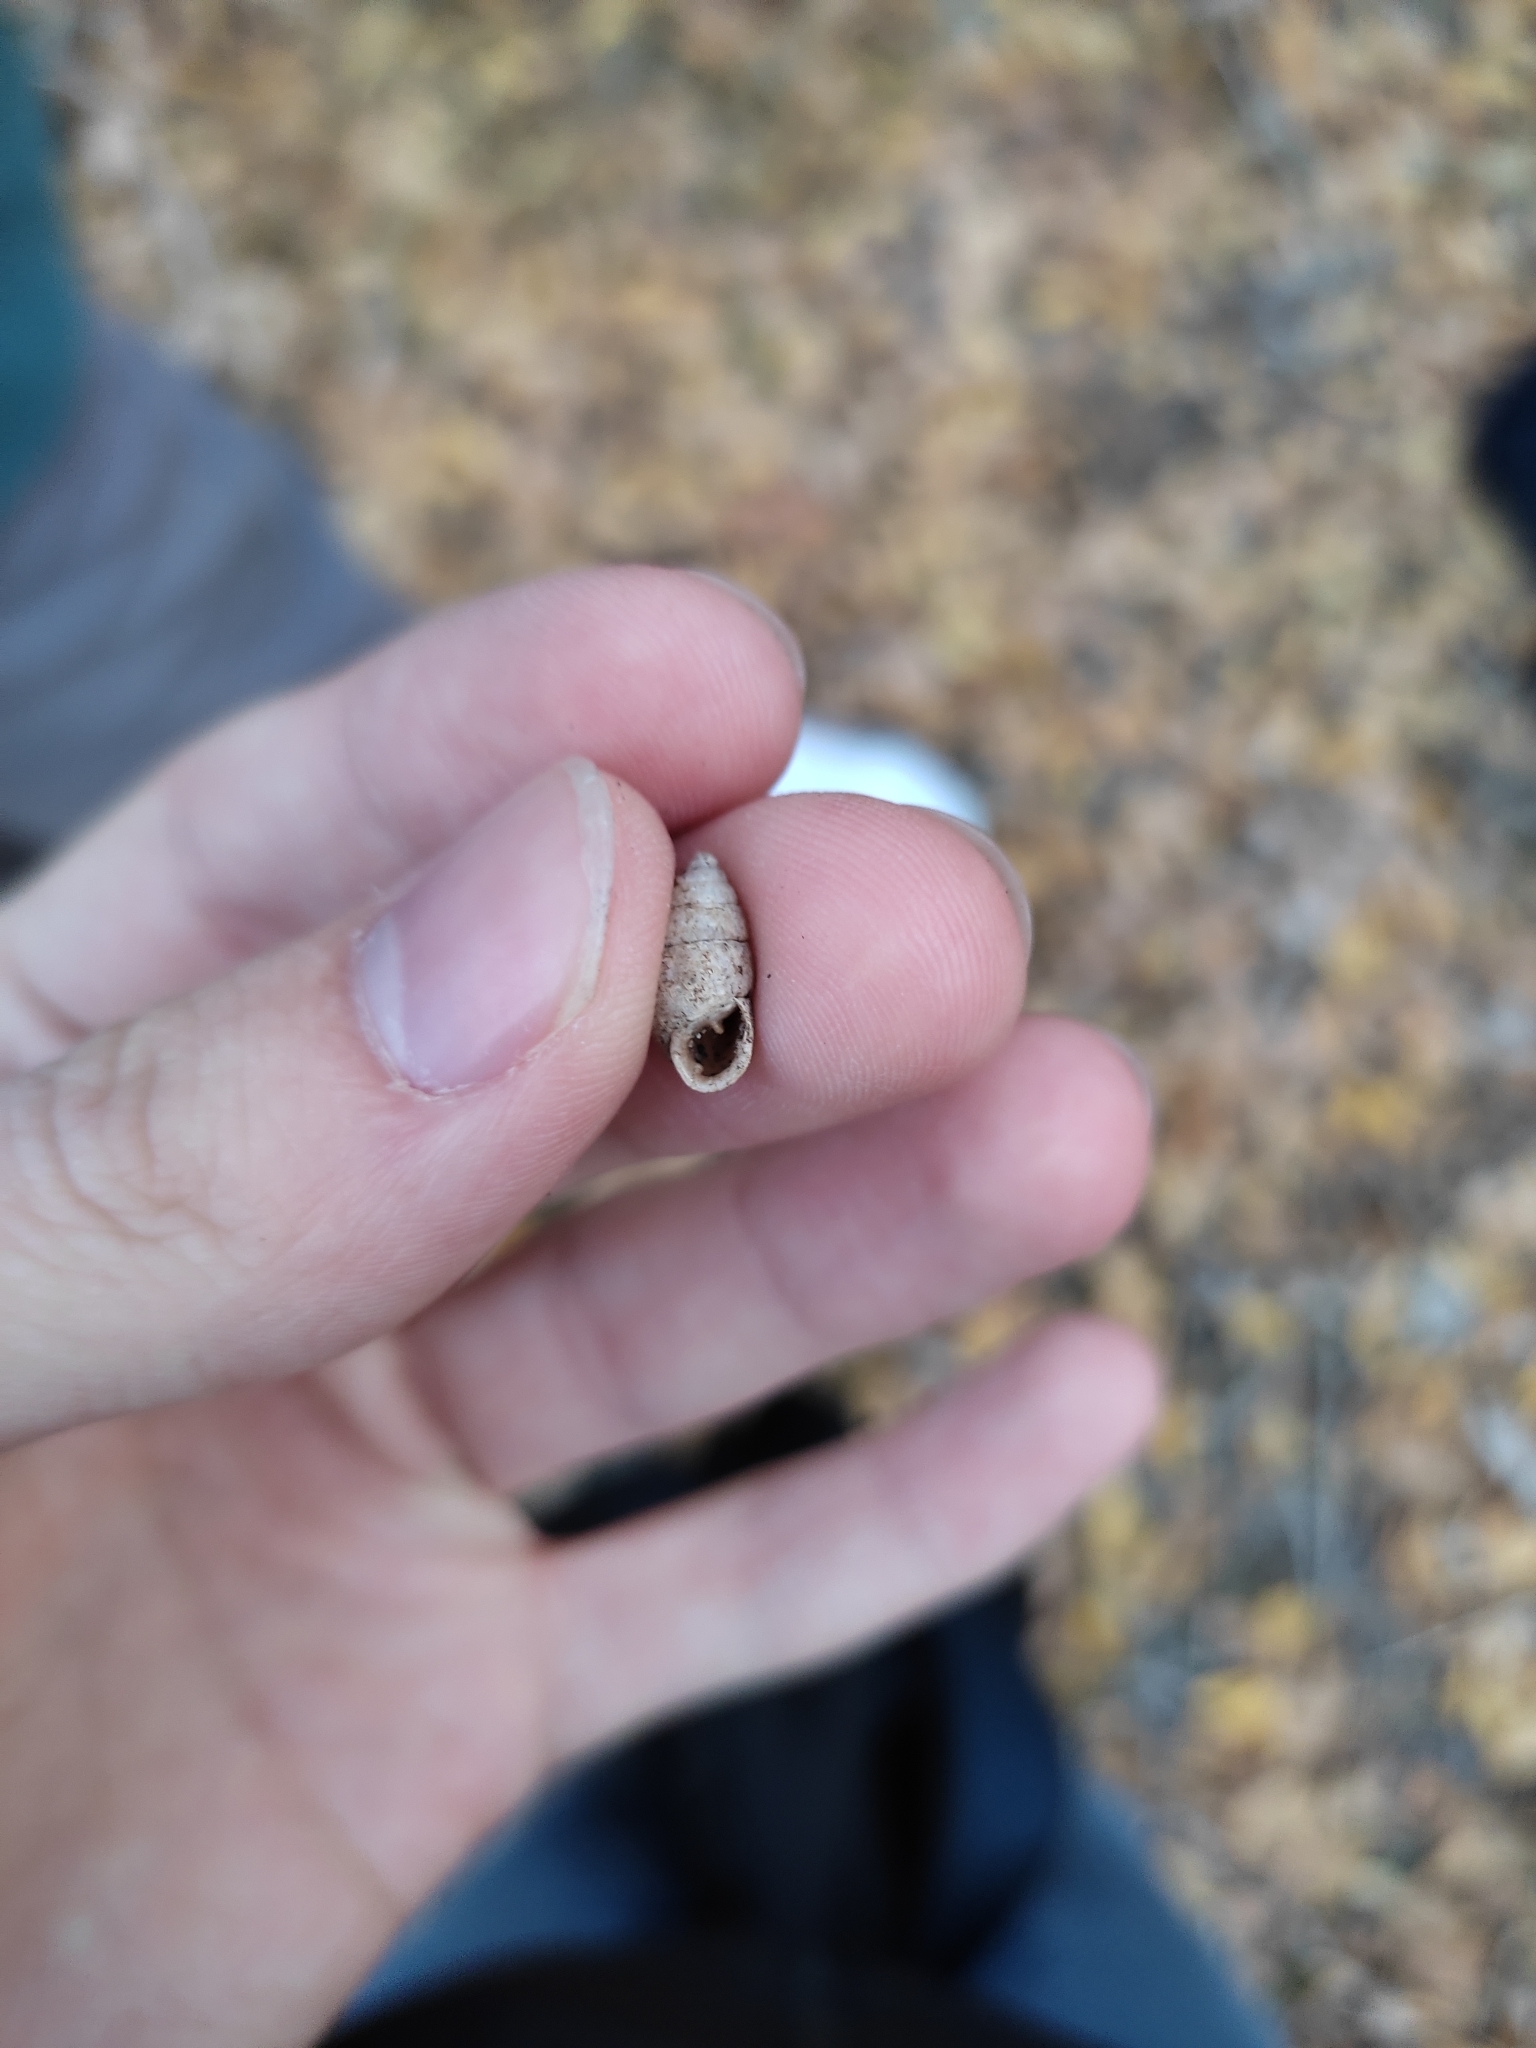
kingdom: Animalia
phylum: Mollusca
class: Gastropoda
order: Stylommatophora
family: Enidae
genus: Chondrula
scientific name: Chondrula tridens
